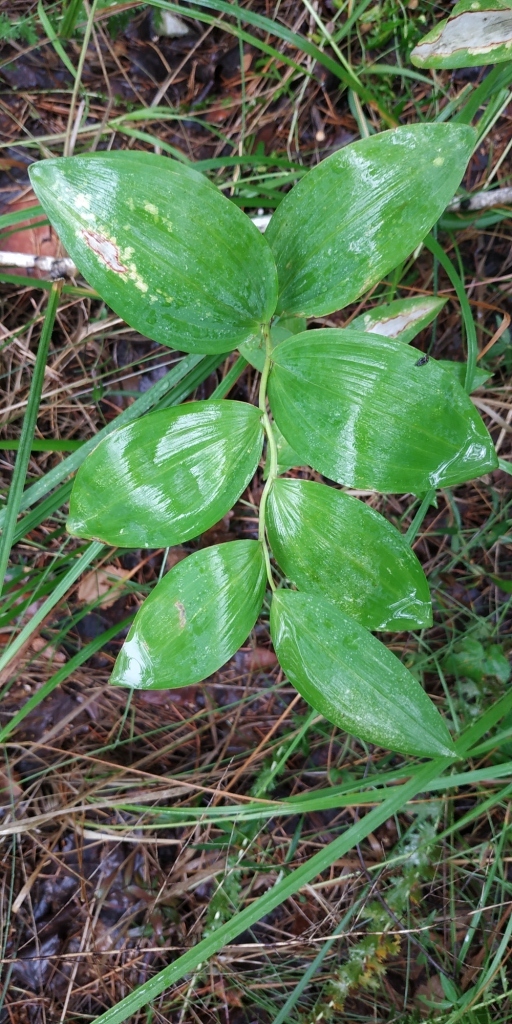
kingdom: Plantae
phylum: Tracheophyta
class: Liliopsida
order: Asparagales
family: Asparagaceae
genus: Polygonatum
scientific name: Polygonatum odoratum
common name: Angular solomon's-seal
